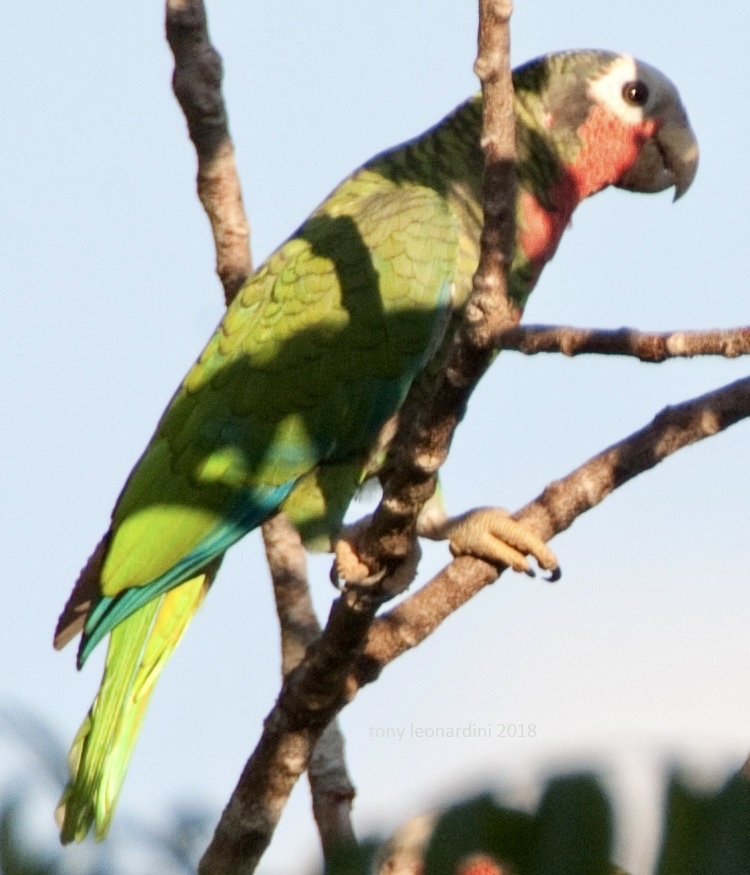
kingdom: Animalia
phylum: Chordata
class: Aves
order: Psittaciformes
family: Psittacidae
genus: Amazona
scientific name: Amazona leucocephala
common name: Cuban amazon
